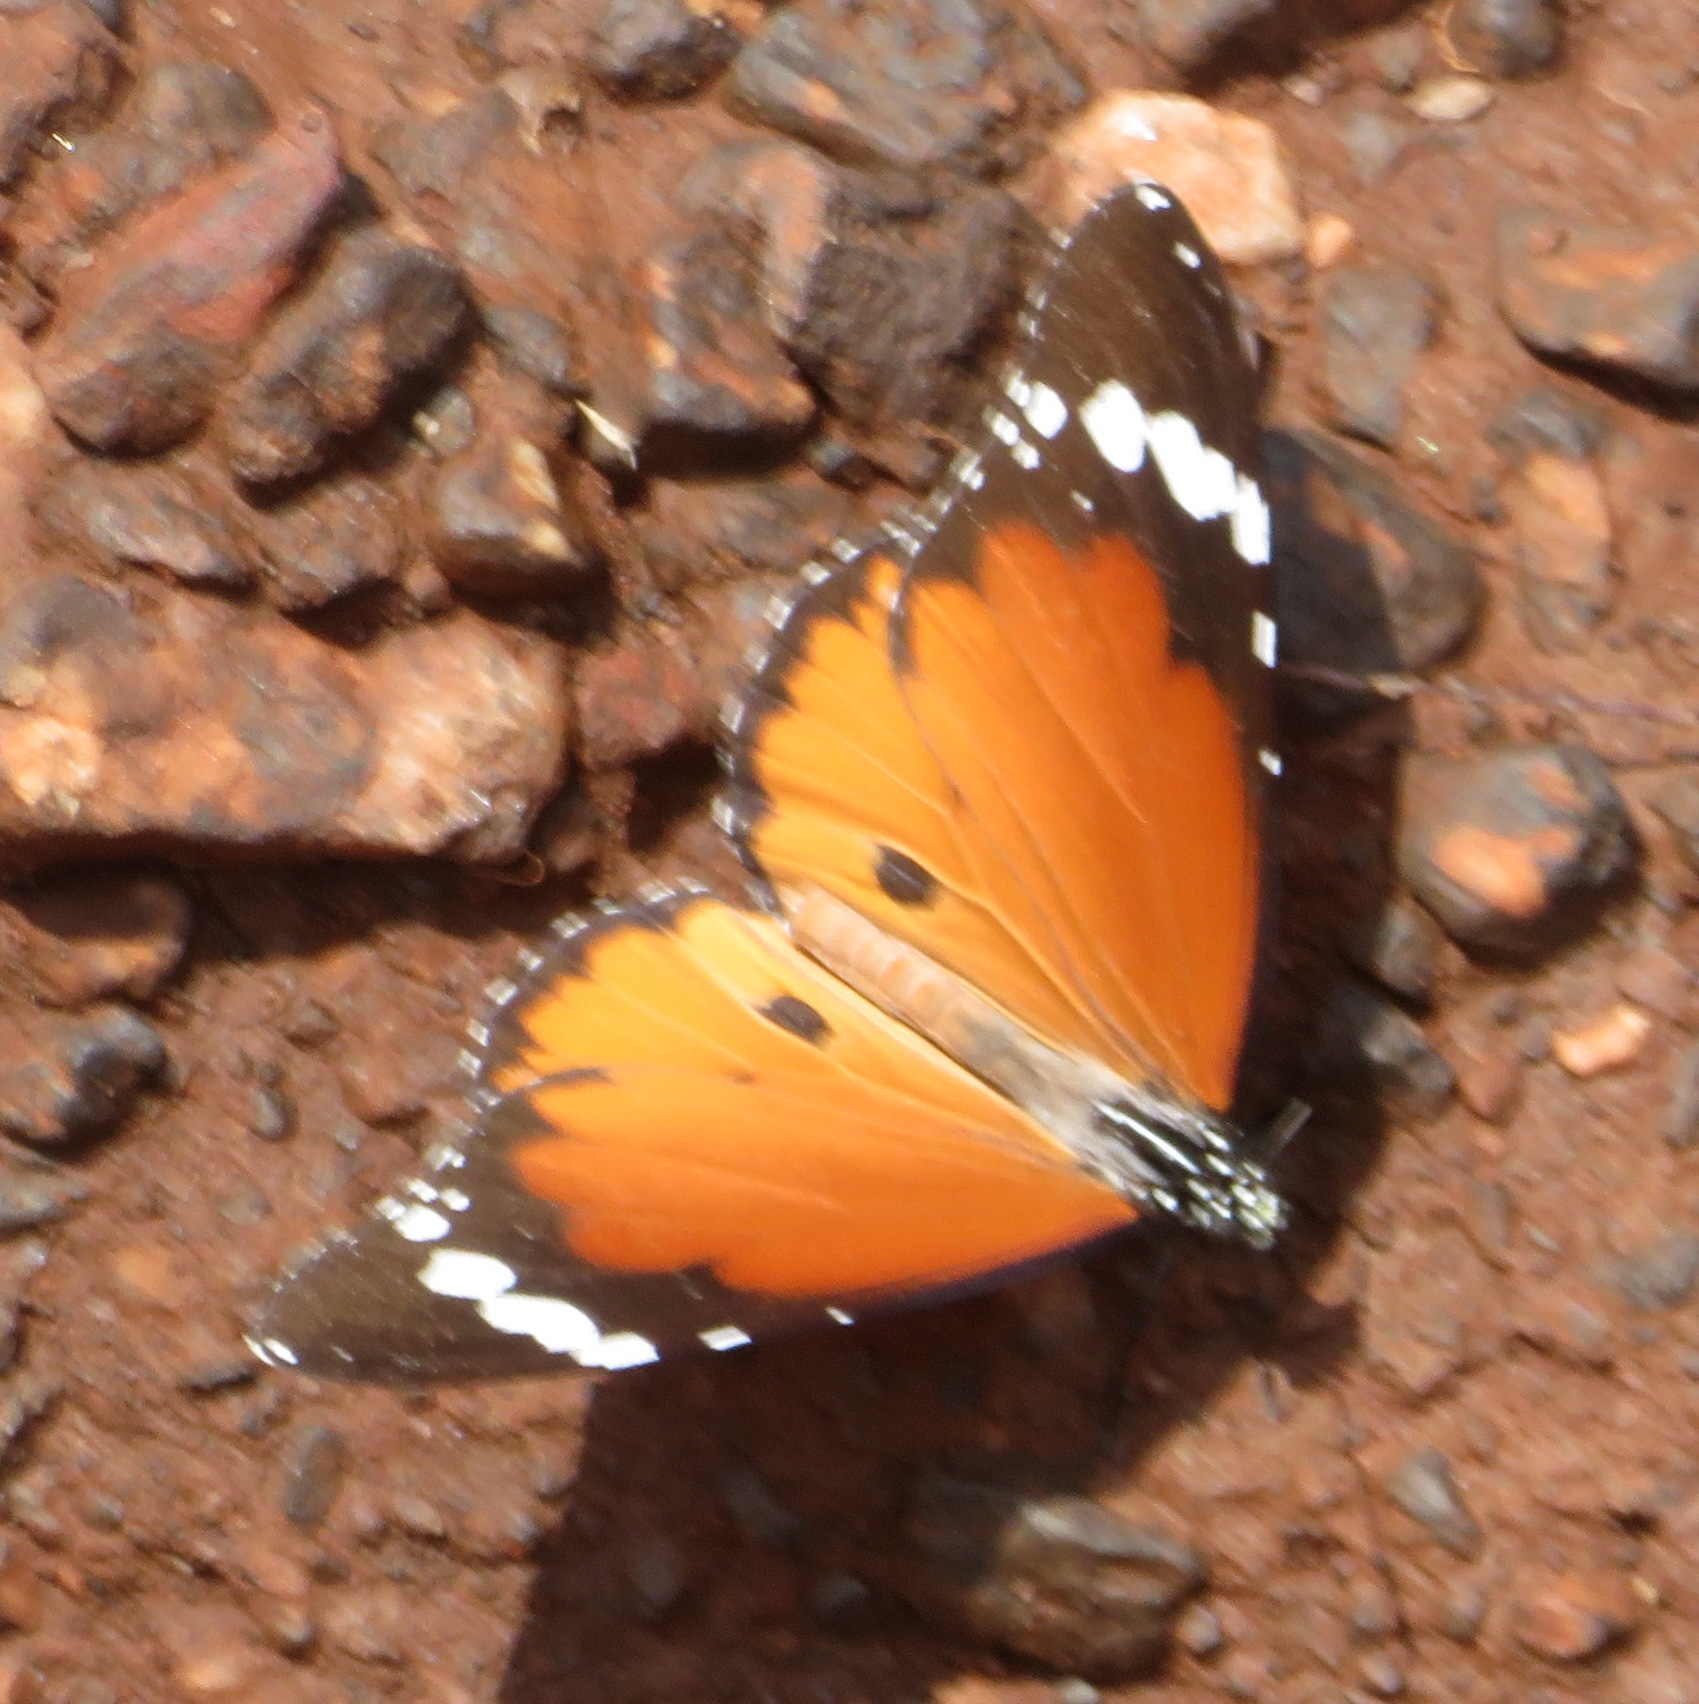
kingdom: Animalia
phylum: Arthropoda
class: Insecta
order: Lepidoptera
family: Nymphalidae
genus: Danaus
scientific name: Danaus chrysippus
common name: Plain tiger
